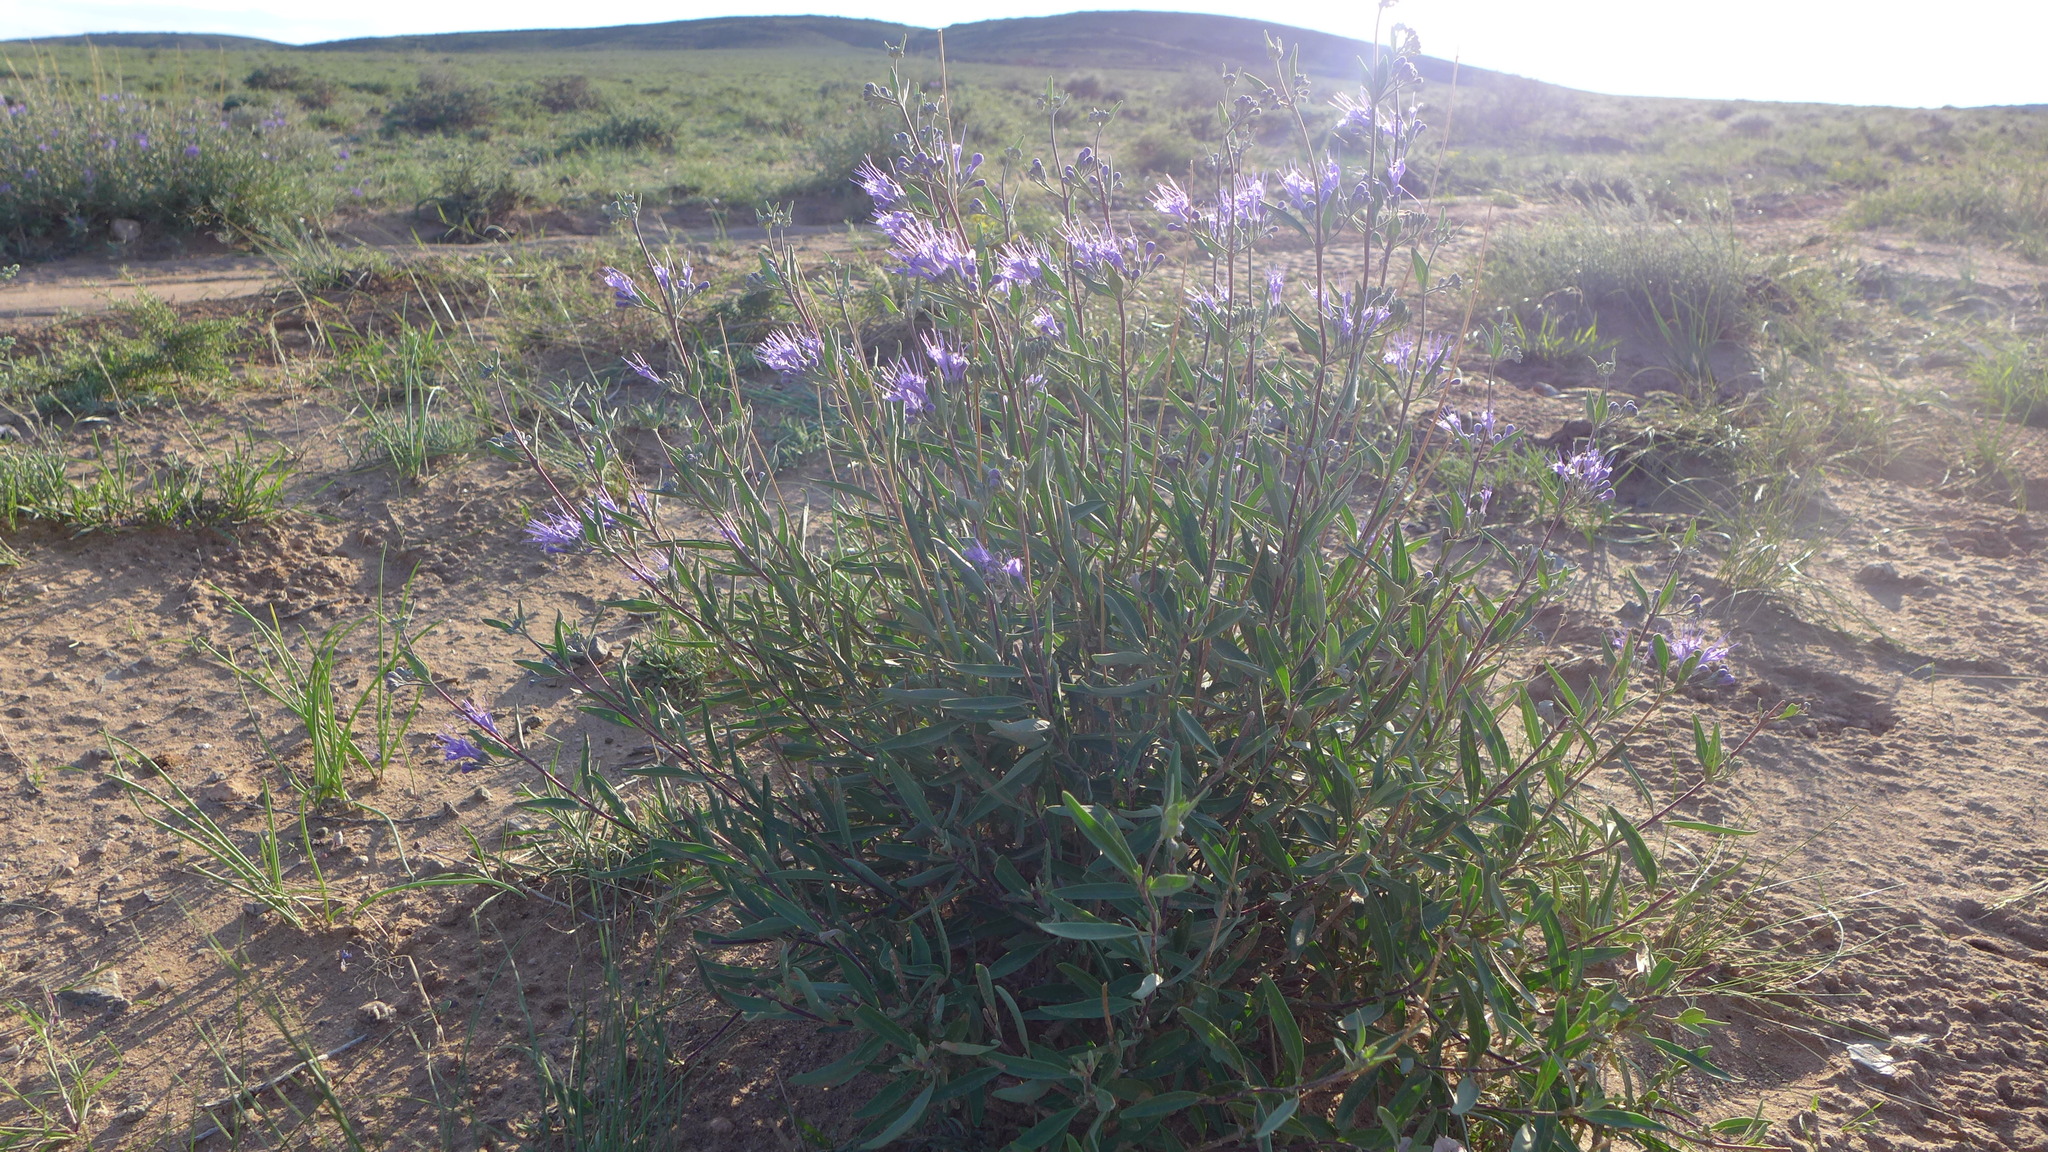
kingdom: Plantae
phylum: Tracheophyta
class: Magnoliopsida
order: Lamiales
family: Lamiaceae
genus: Caryopteris
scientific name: Caryopteris mongholica
